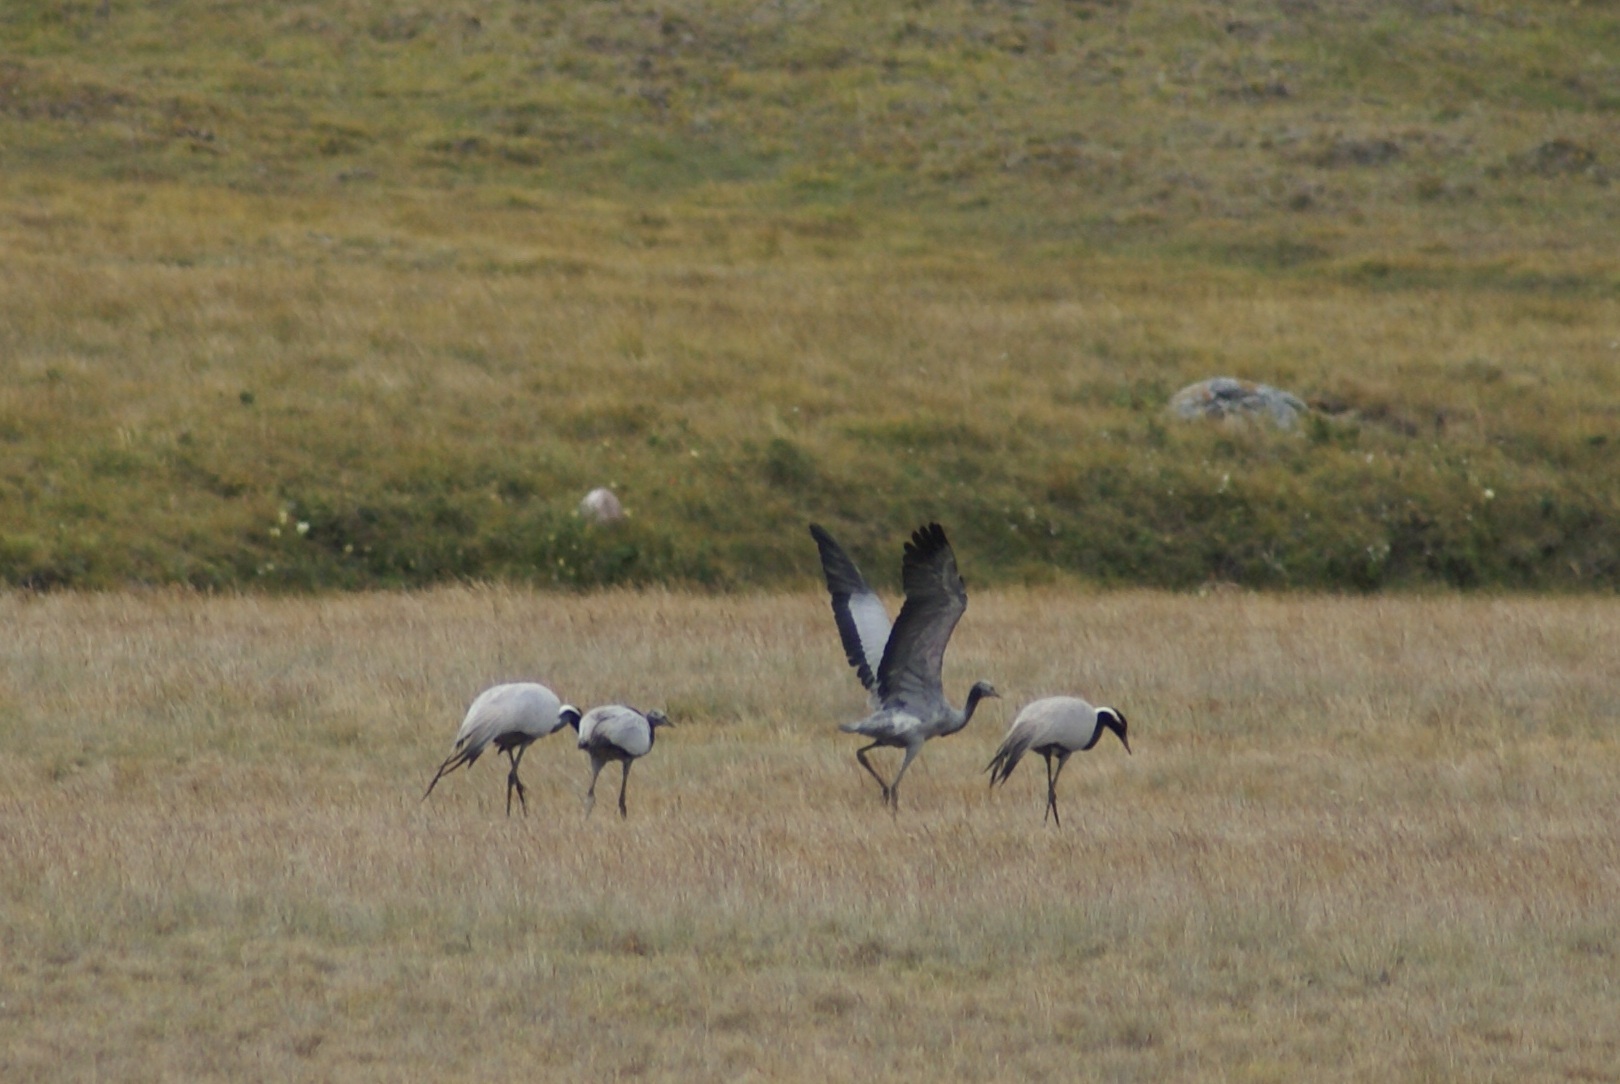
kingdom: Animalia
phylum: Chordata
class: Aves
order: Gruiformes
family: Gruidae
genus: Anthropoides
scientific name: Anthropoides virgo
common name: Demoiselle crane
